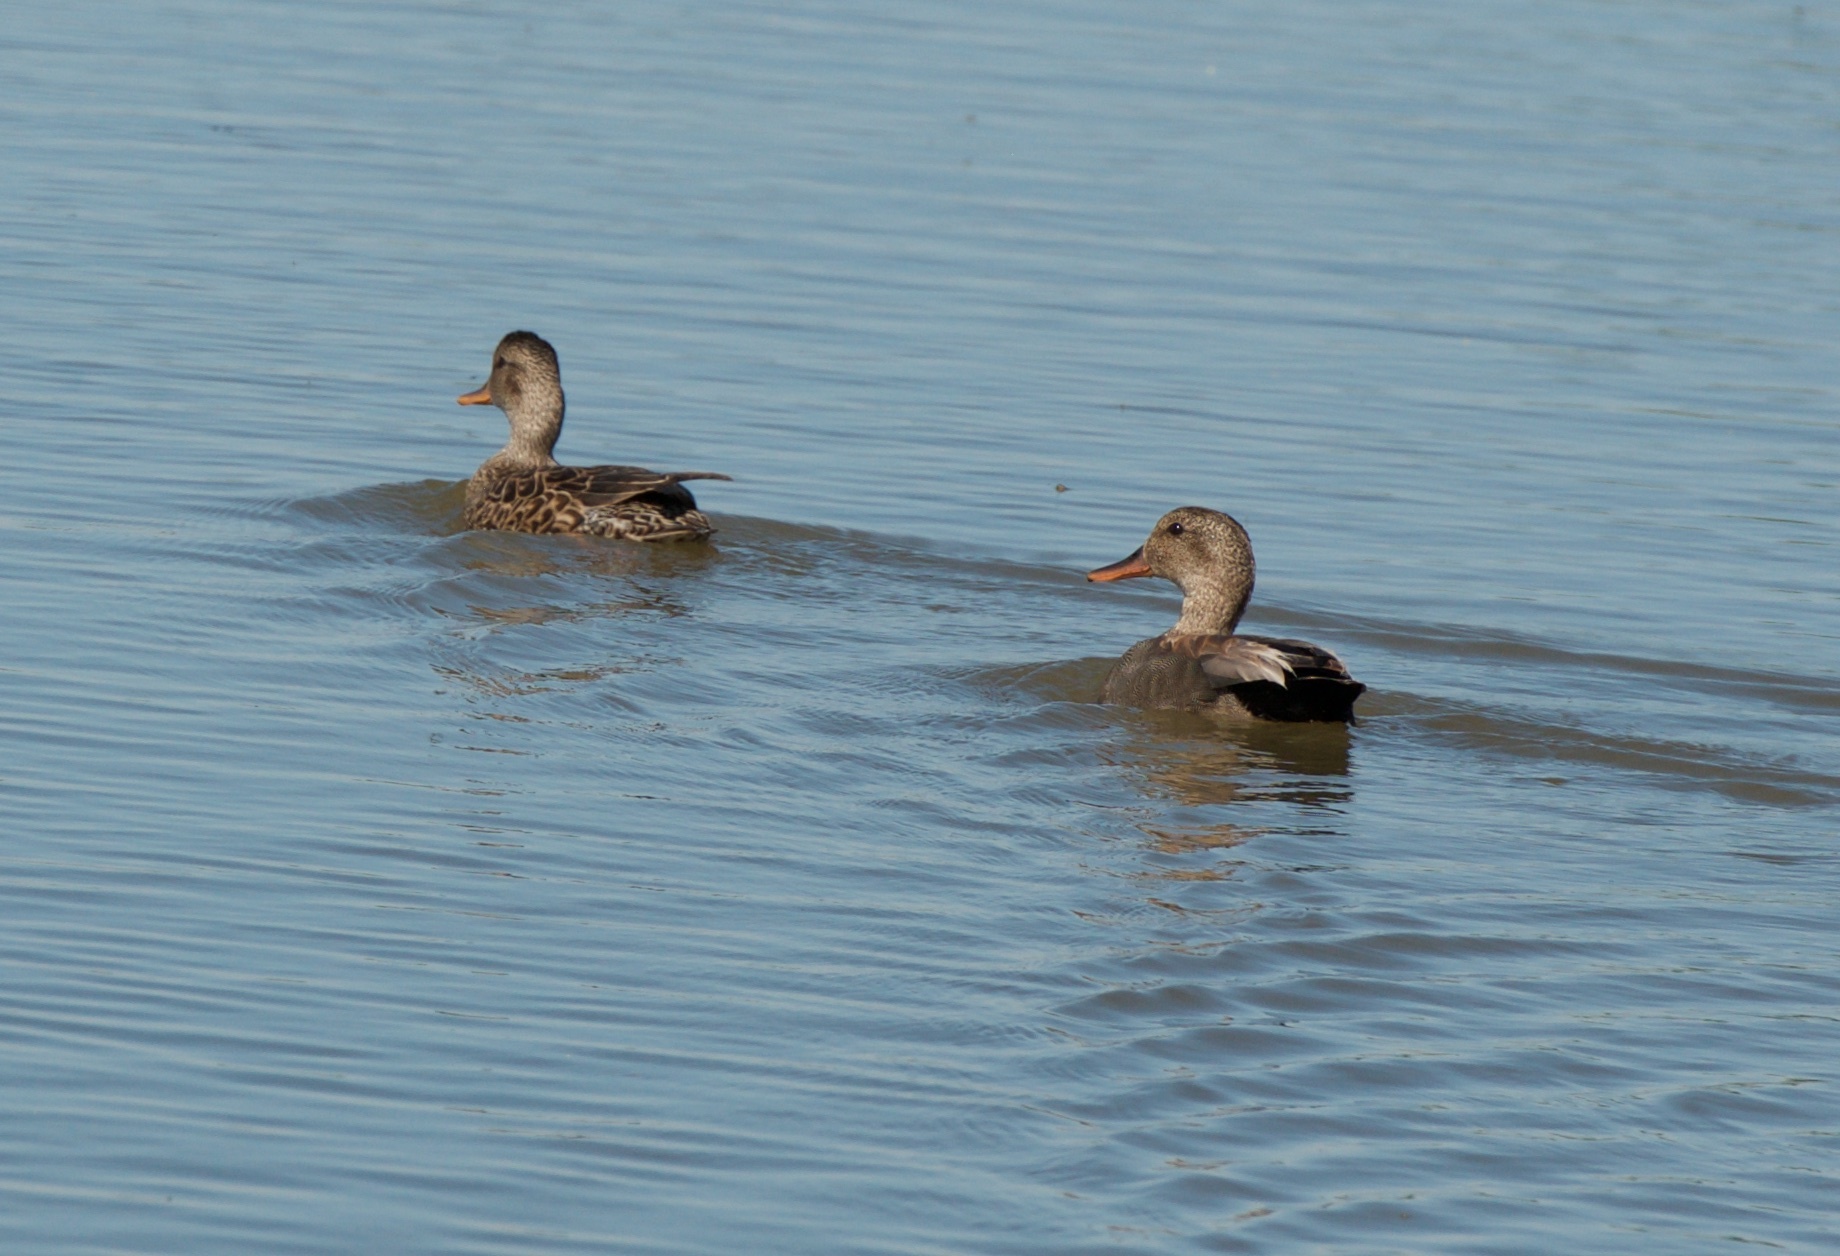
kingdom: Animalia
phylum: Chordata
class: Aves
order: Anseriformes
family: Anatidae
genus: Mareca
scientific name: Mareca strepera
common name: Gadwall
